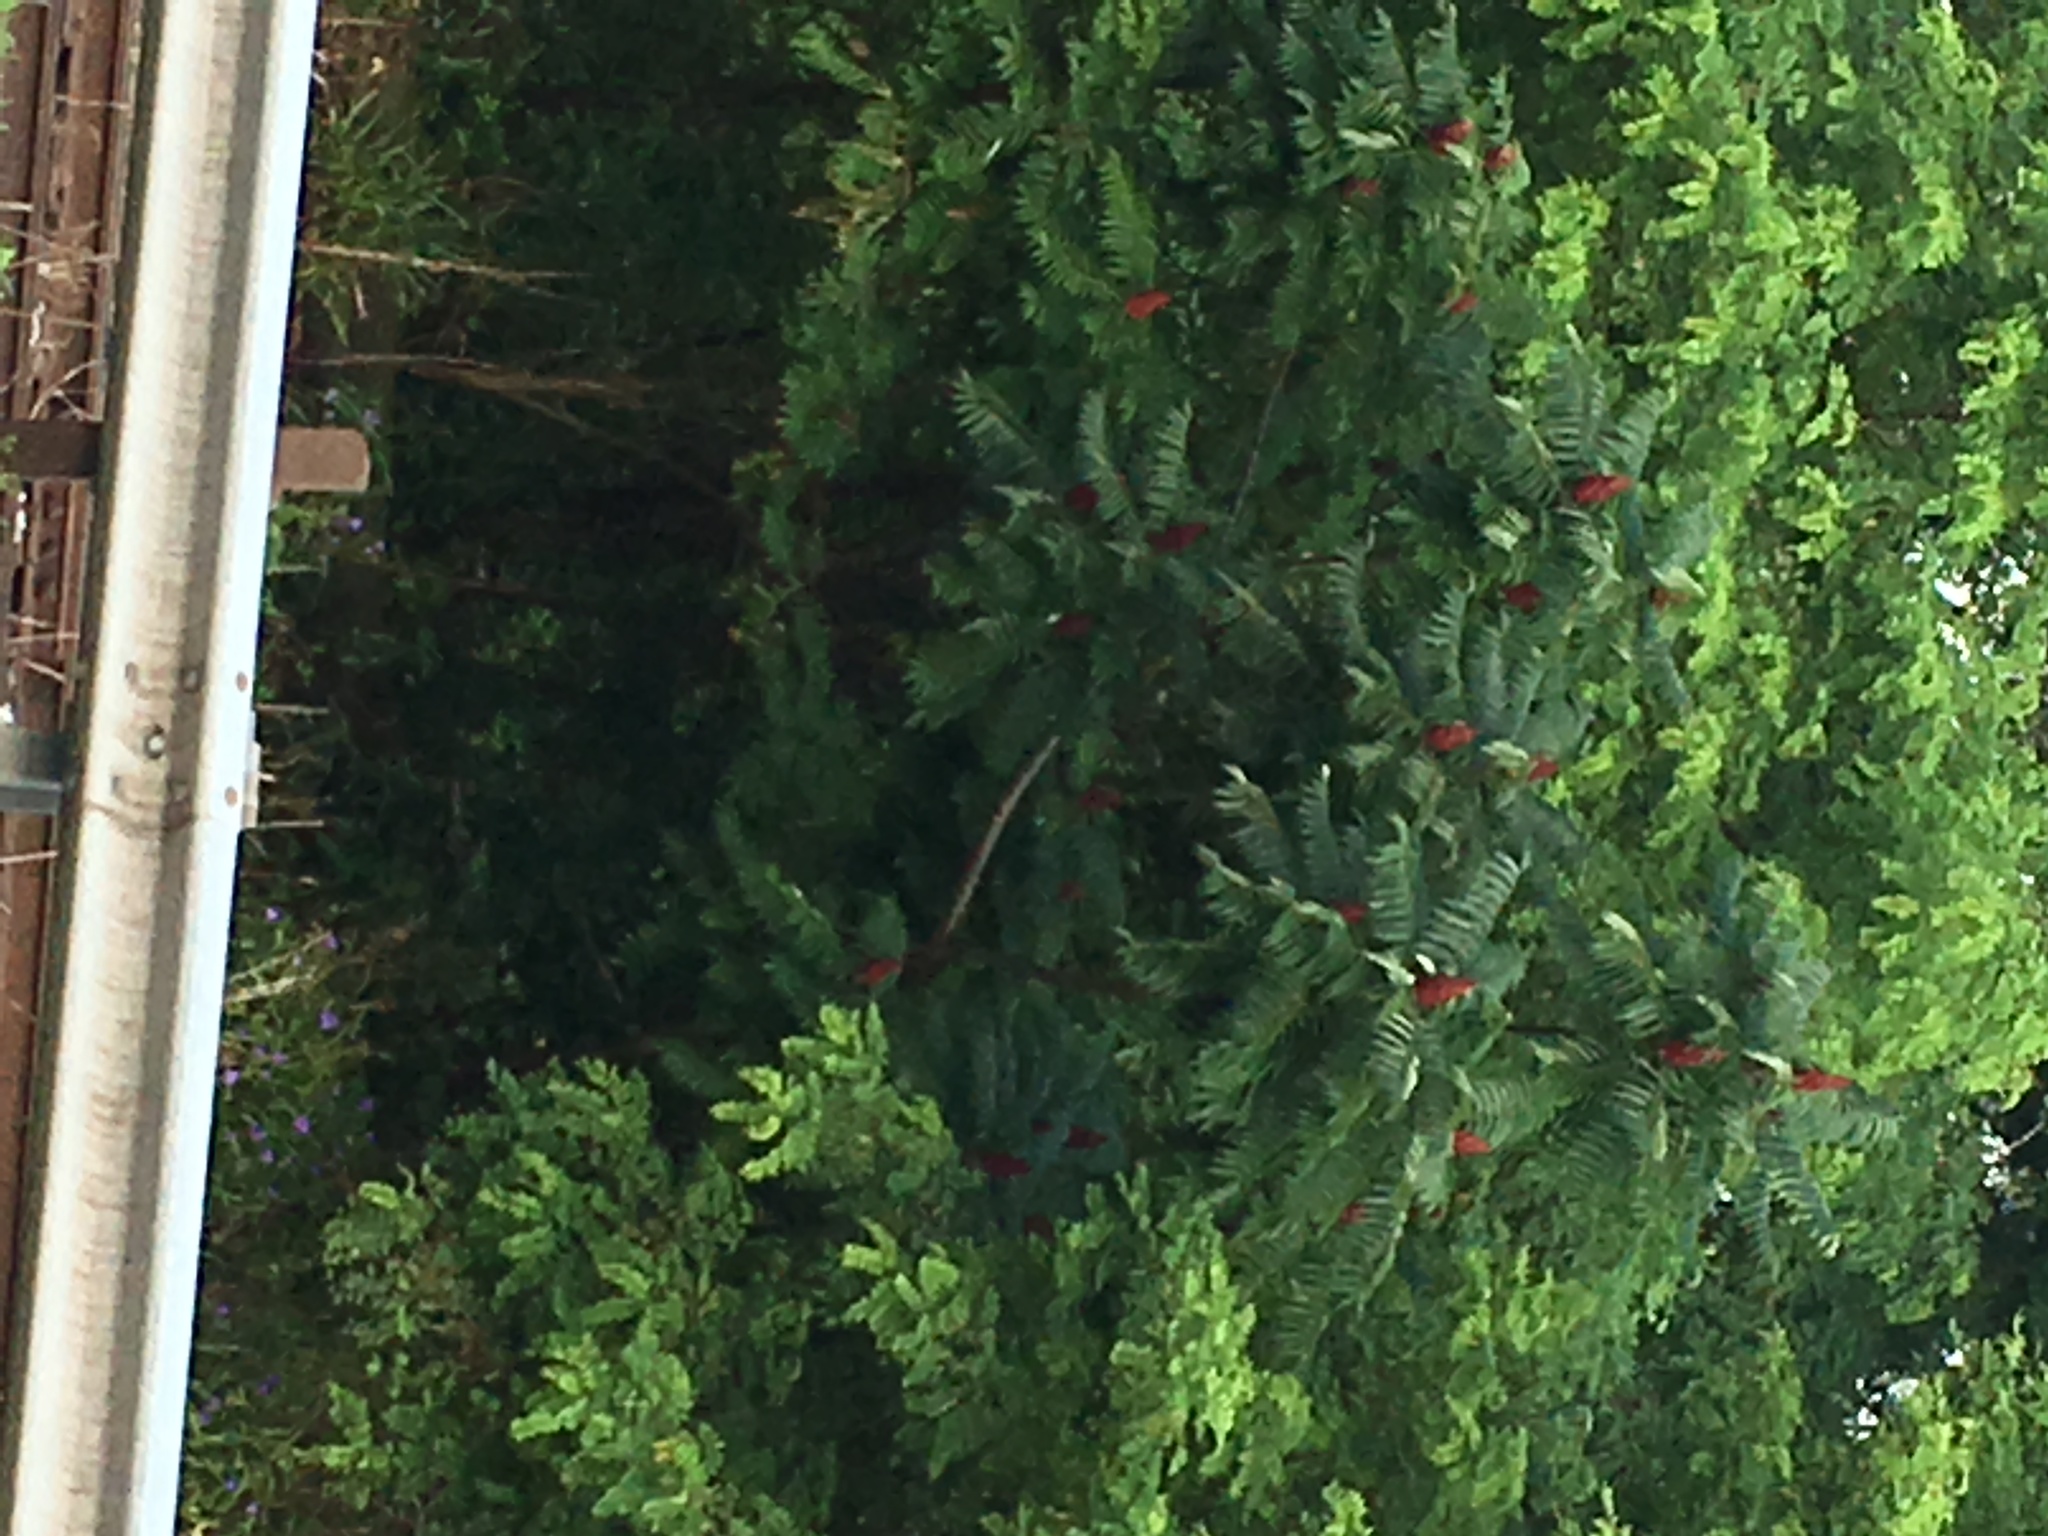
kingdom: Plantae
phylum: Tracheophyta
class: Magnoliopsida
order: Sapindales
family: Anacardiaceae
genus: Rhus
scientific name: Rhus typhina
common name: Staghorn sumac
